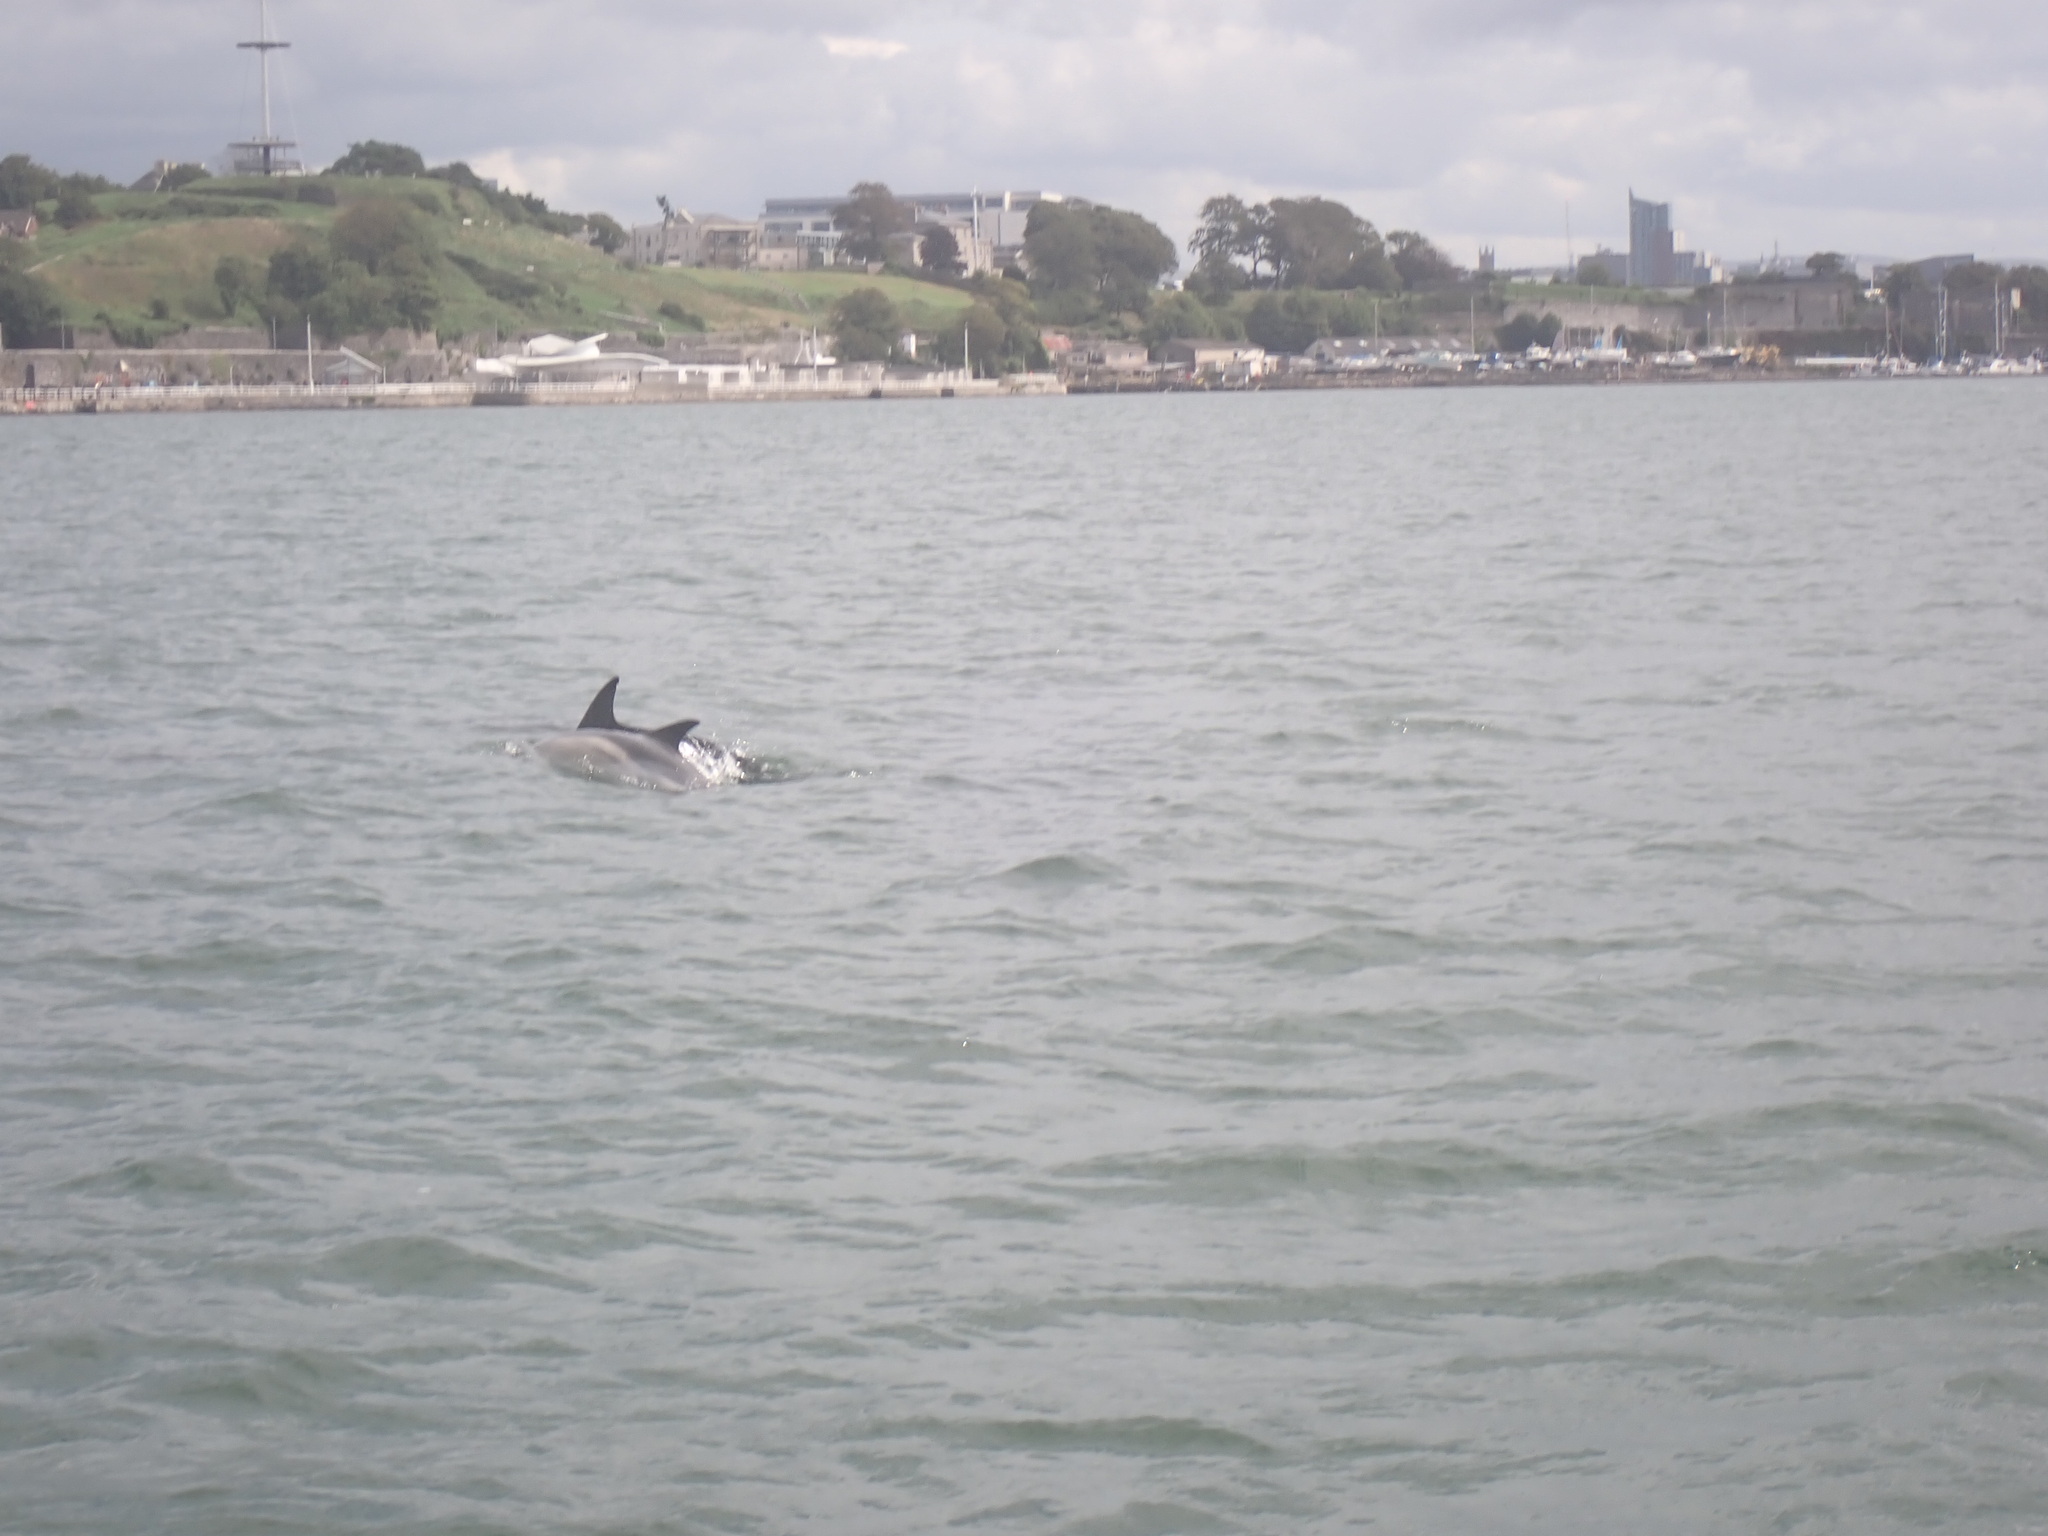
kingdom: Animalia
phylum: Chordata
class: Mammalia
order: Cetacea
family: Delphinidae
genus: Delphinus
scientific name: Delphinus delphis
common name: Common dolphin
